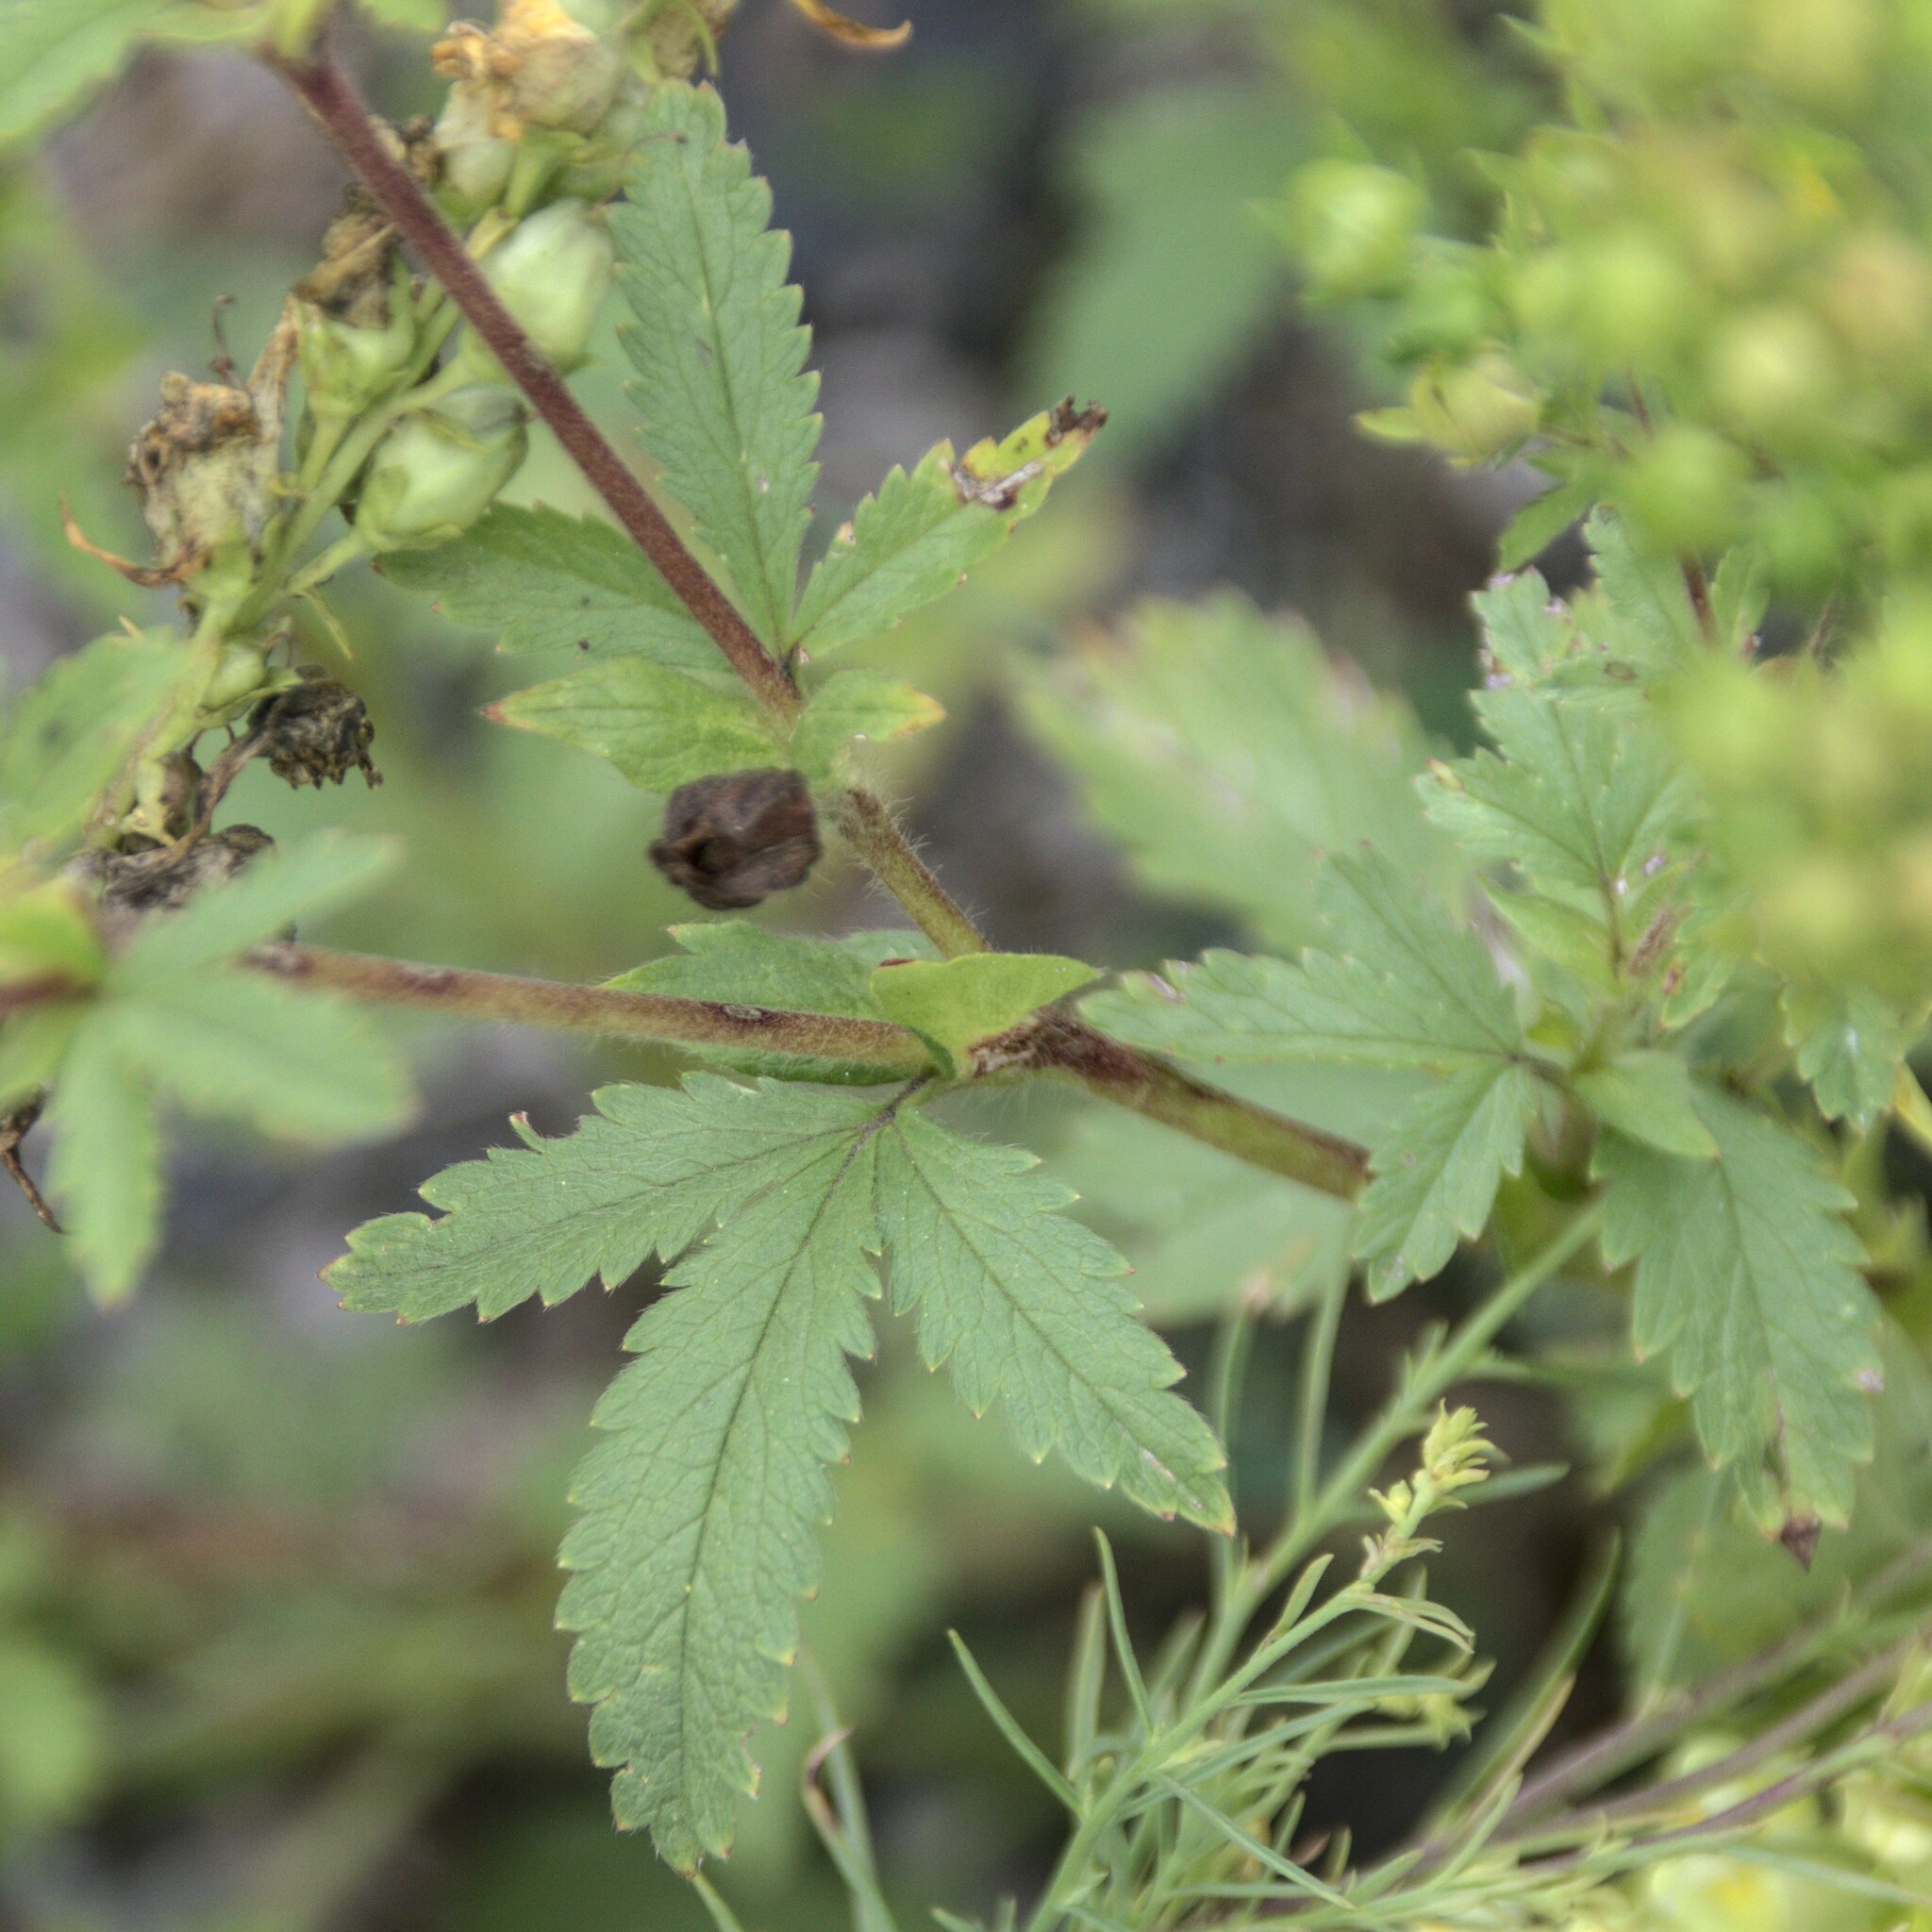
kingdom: Plantae
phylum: Tracheophyta
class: Magnoliopsida
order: Rosales
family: Rosaceae
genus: Potentilla
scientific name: Potentilla norvegica
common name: Ternate-leaved cinquefoil
